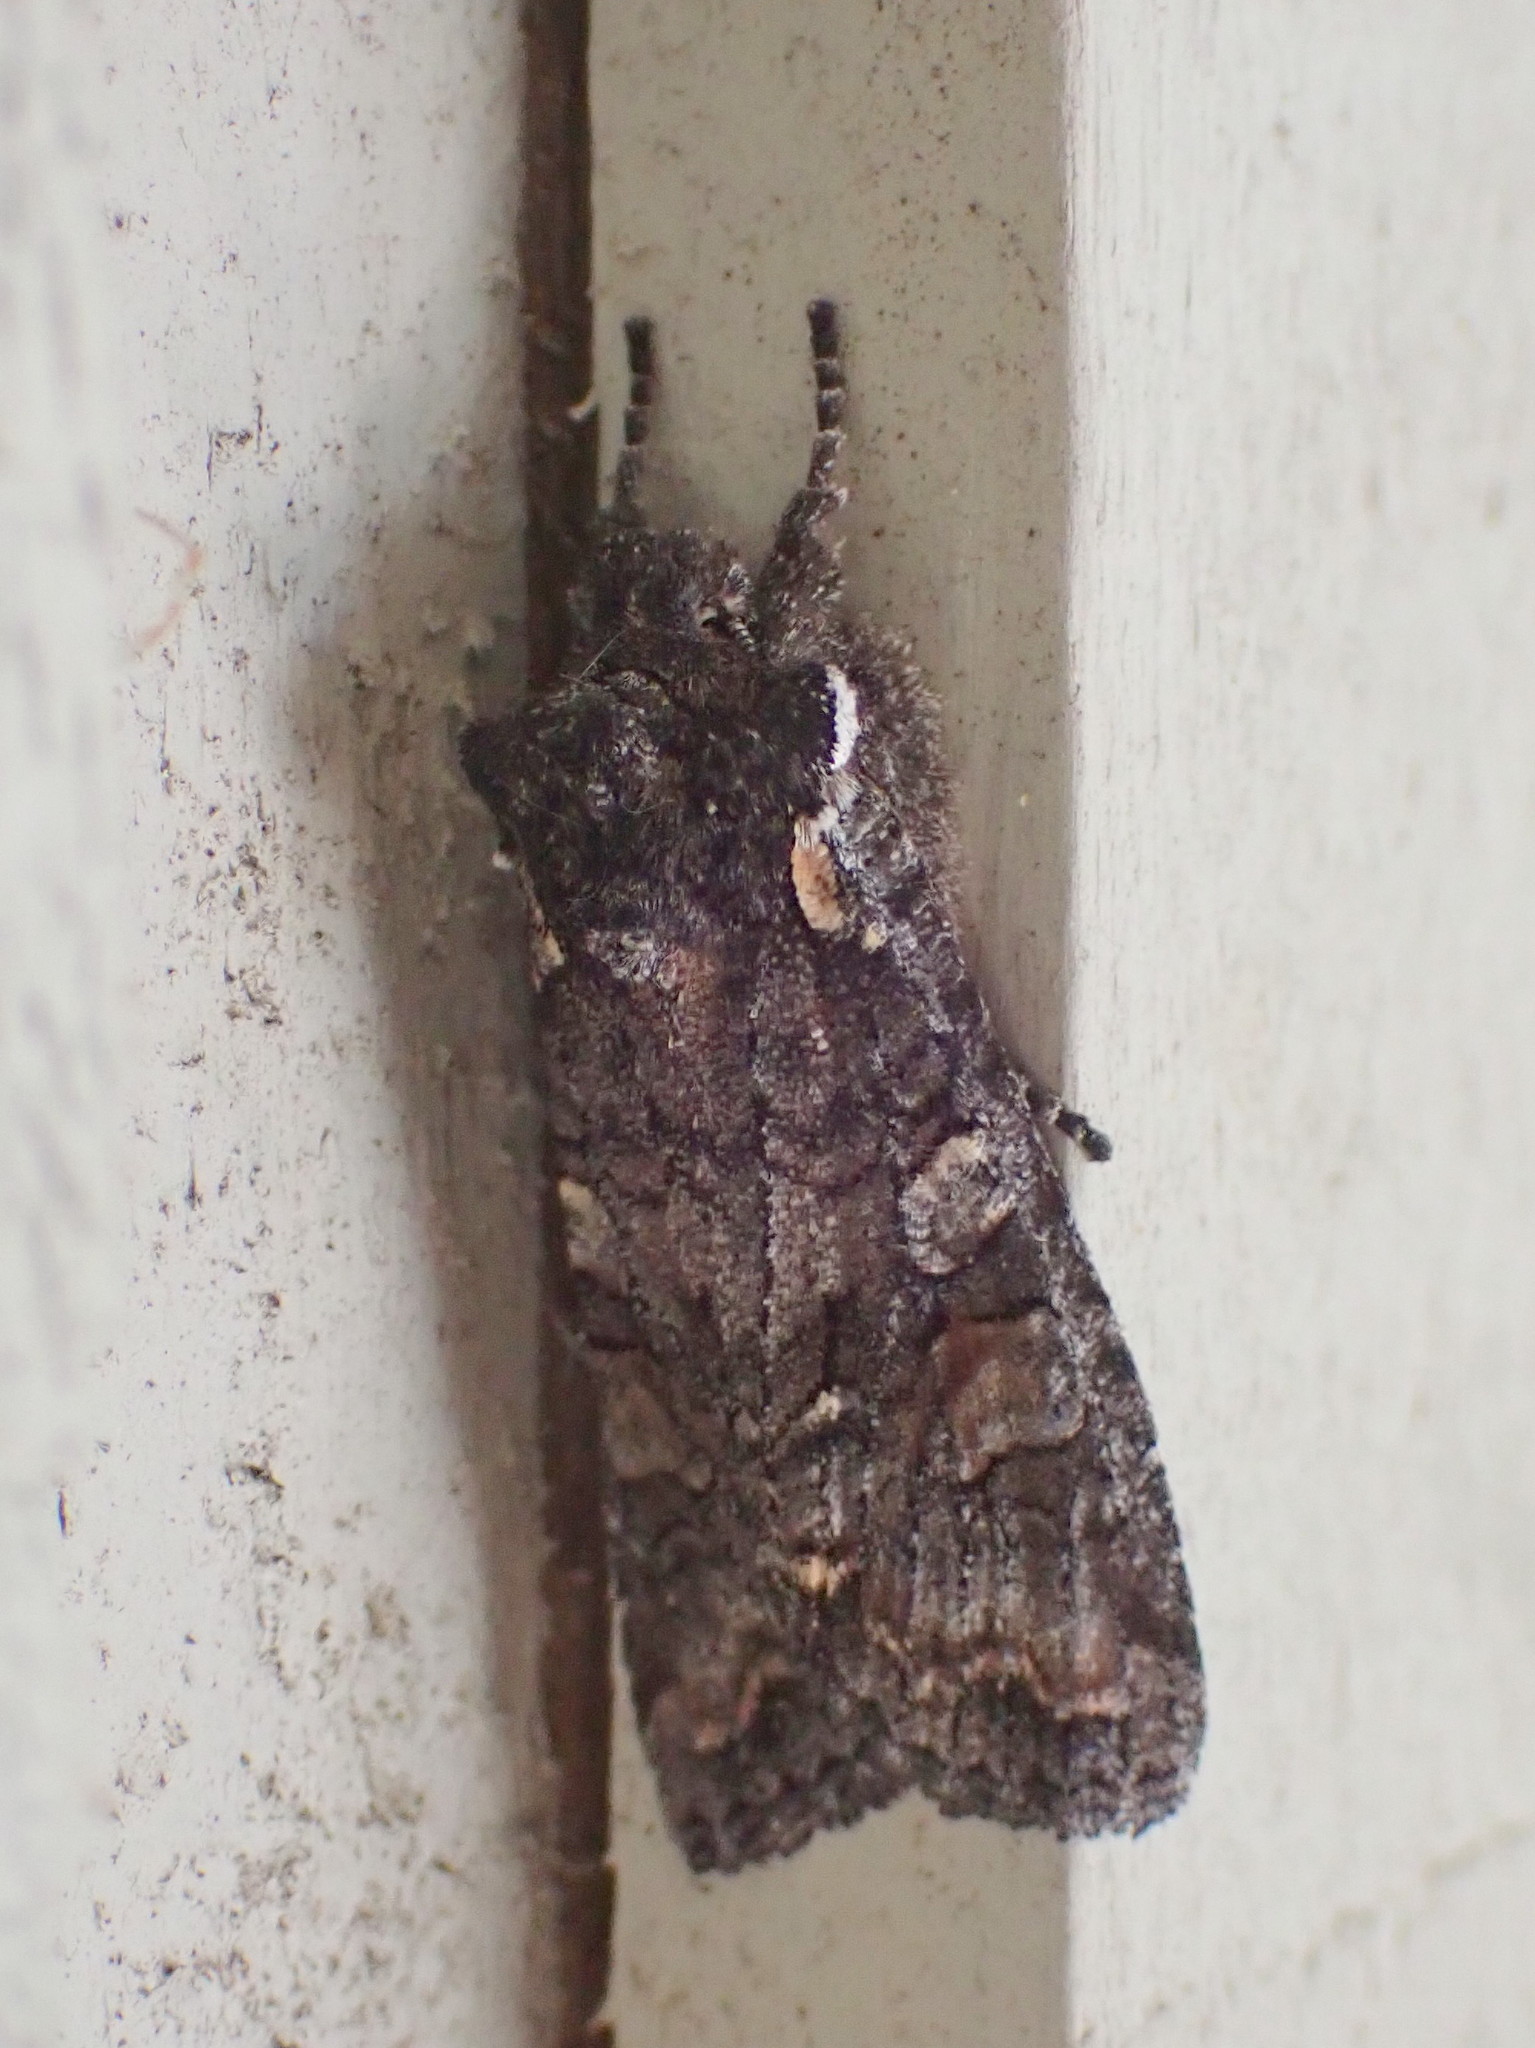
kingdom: Animalia
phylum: Arthropoda
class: Insecta
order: Lepidoptera
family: Noctuidae
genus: Lithophane
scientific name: Lithophane pexata
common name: Plush-naped pinion moth
